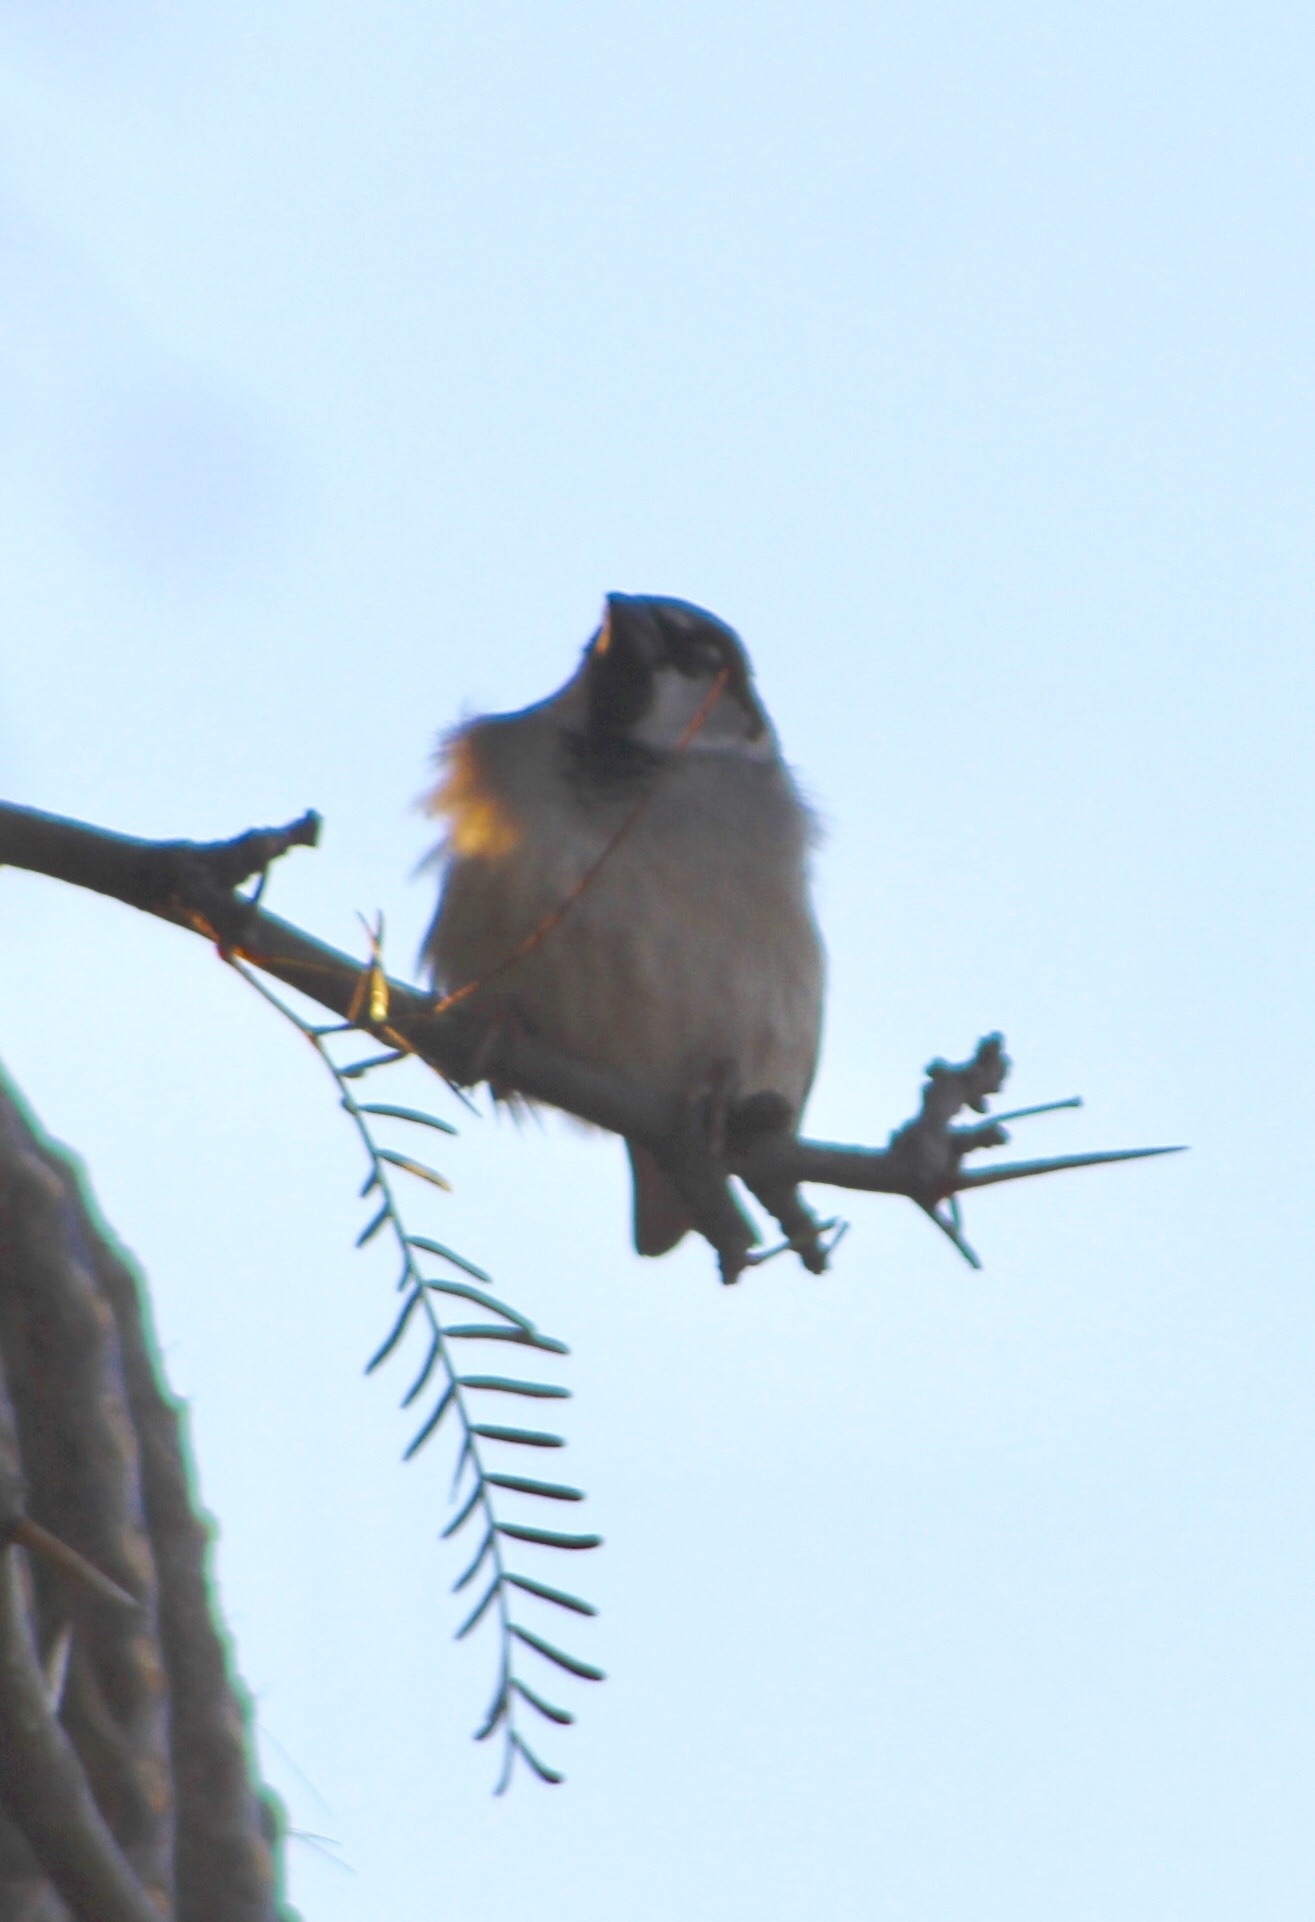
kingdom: Animalia
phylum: Chordata
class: Aves
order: Passeriformes
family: Passeridae
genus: Passer
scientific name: Passer domesticus
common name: House sparrow
